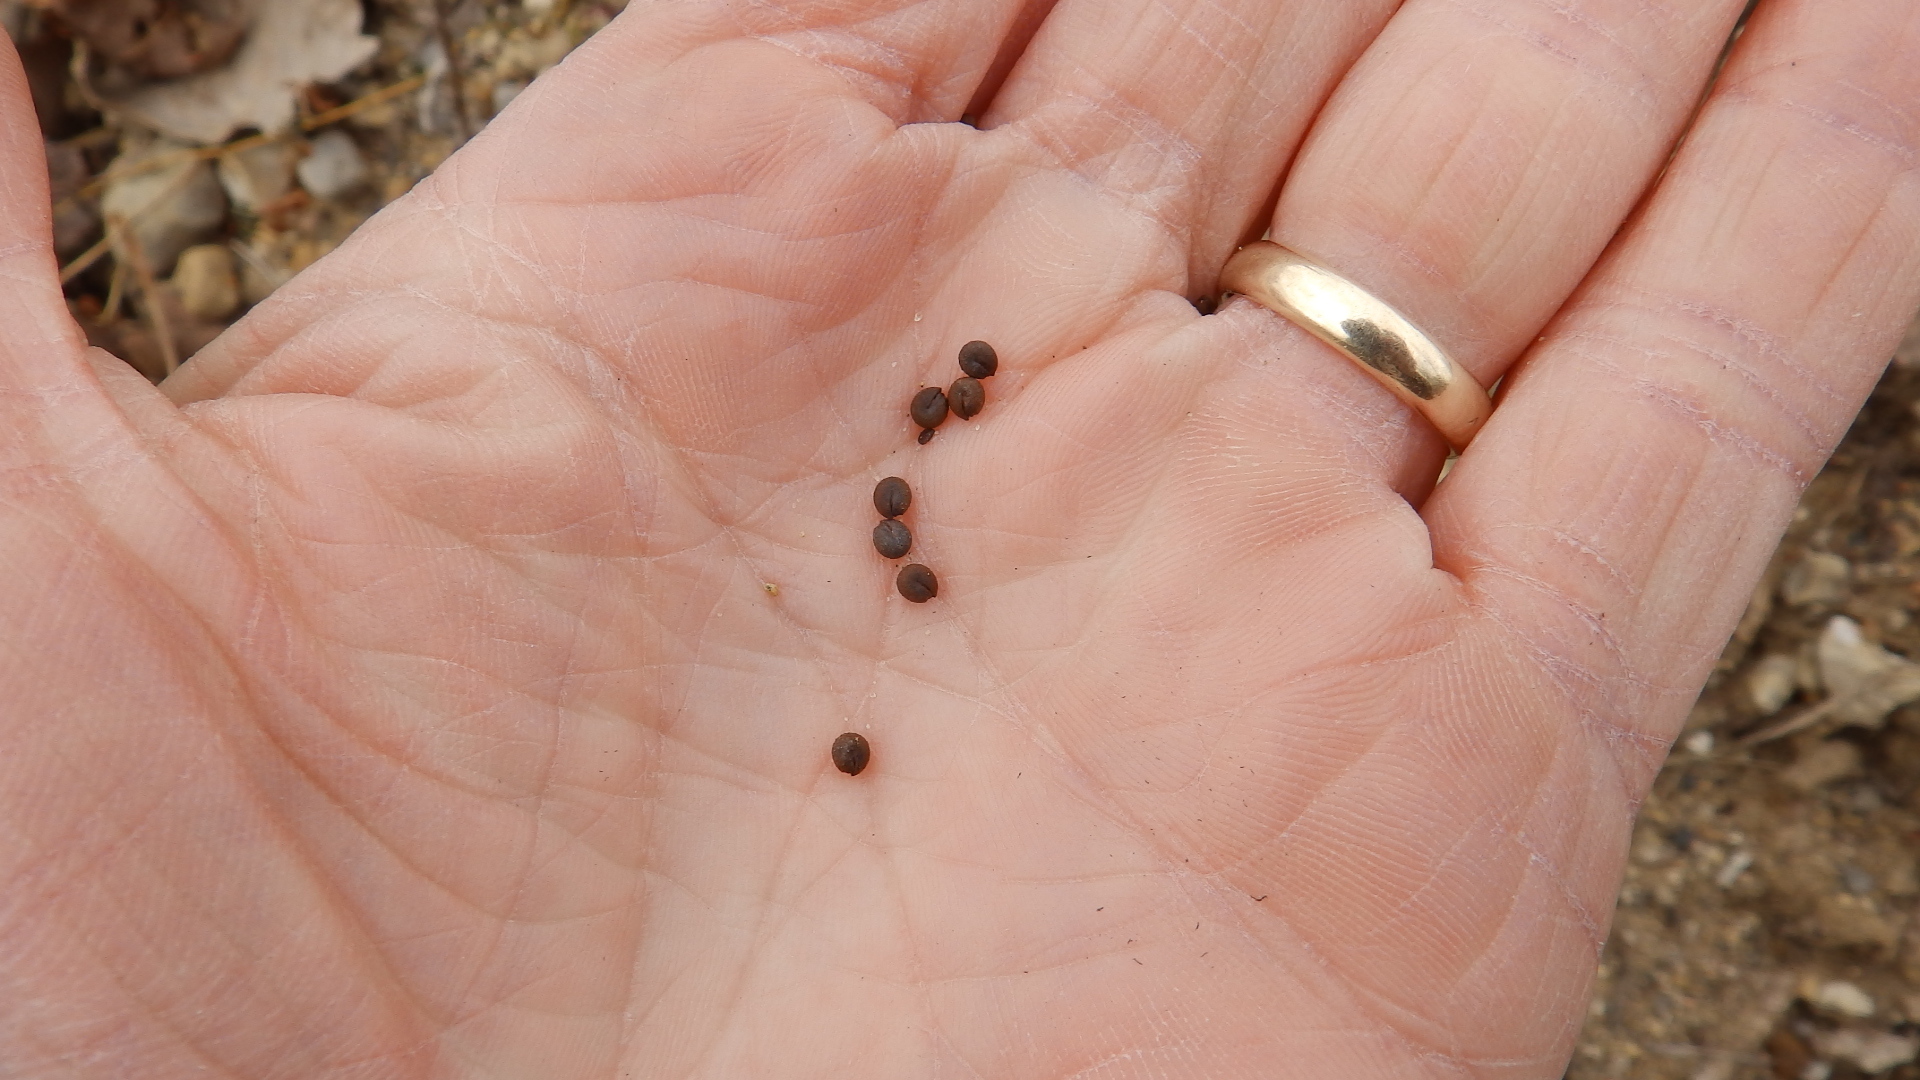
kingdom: Plantae
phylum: Tracheophyta
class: Magnoliopsida
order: Brassicales
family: Cleomaceae
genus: Polanisia
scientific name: Polanisia dodecandra
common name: Clammyweed
